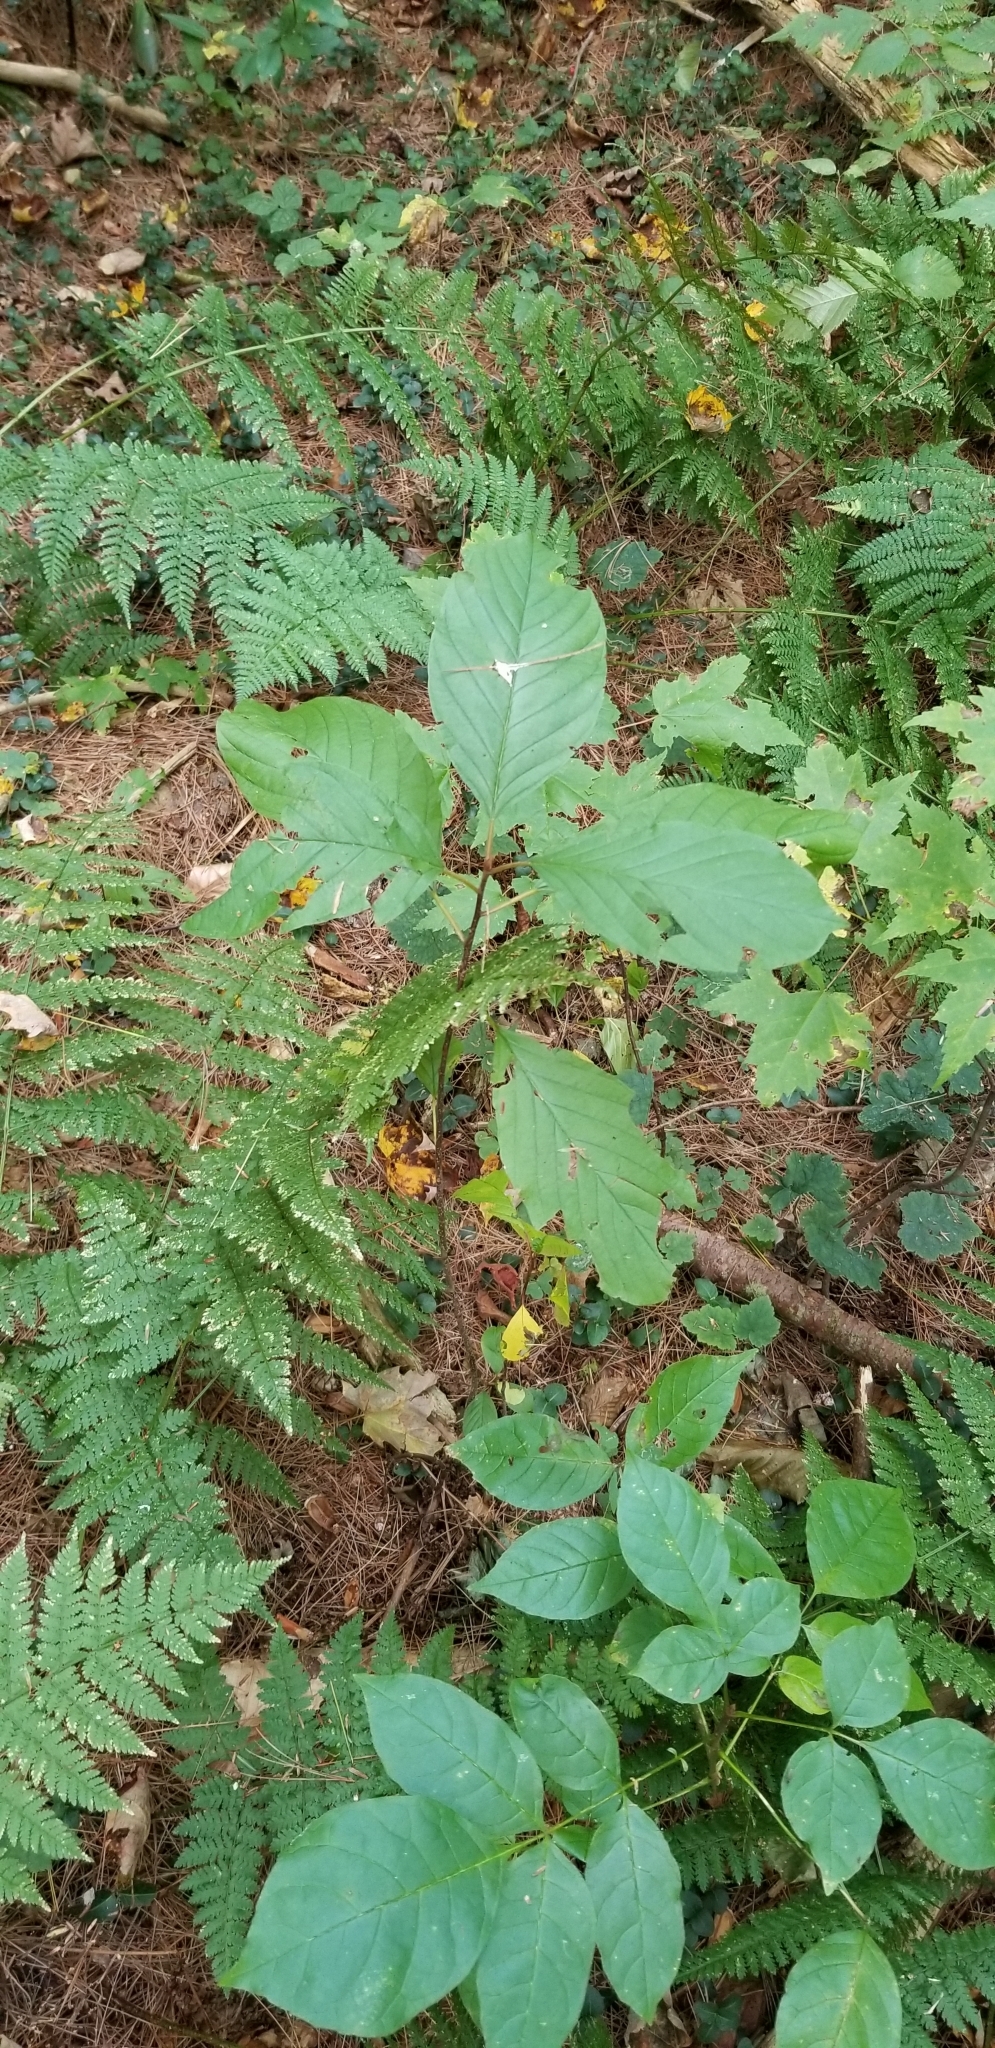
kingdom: Plantae
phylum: Tracheophyta
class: Magnoliopsida
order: Rosales
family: Rhamnaceae
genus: Frangula
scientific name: Frangula alnus
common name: Alder buckthorn
